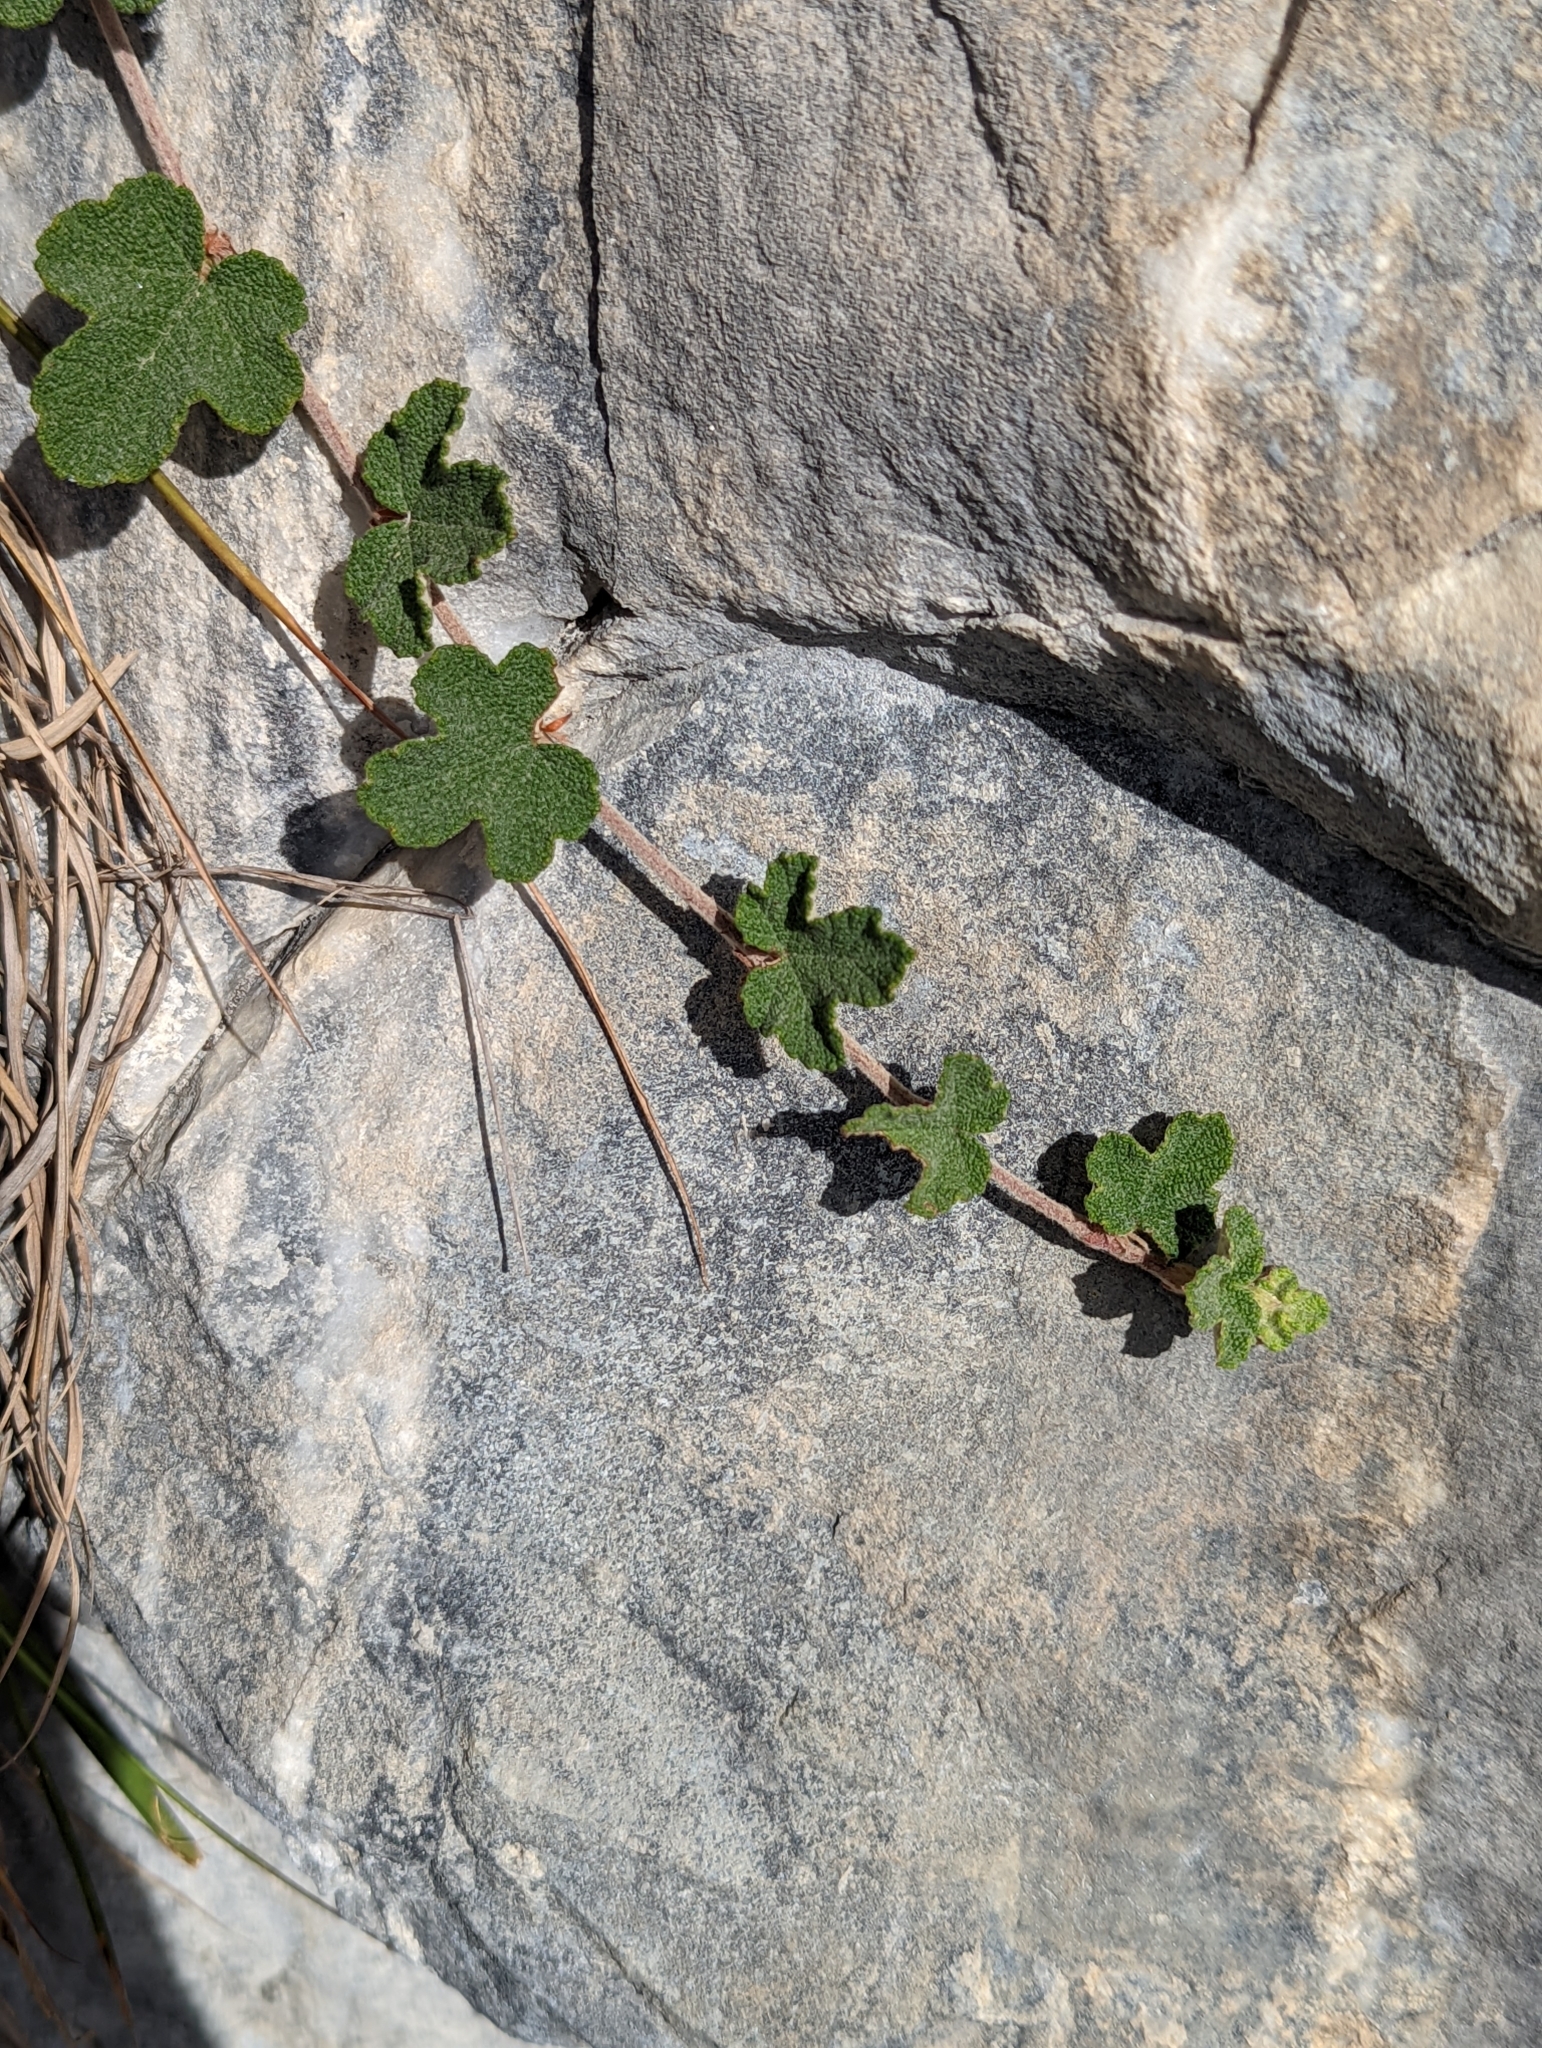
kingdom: Plantae
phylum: Tracheophyta
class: Magnoliopsida
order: Rosales
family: Rosaceae
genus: Rubus
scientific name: Rubus rolfei
